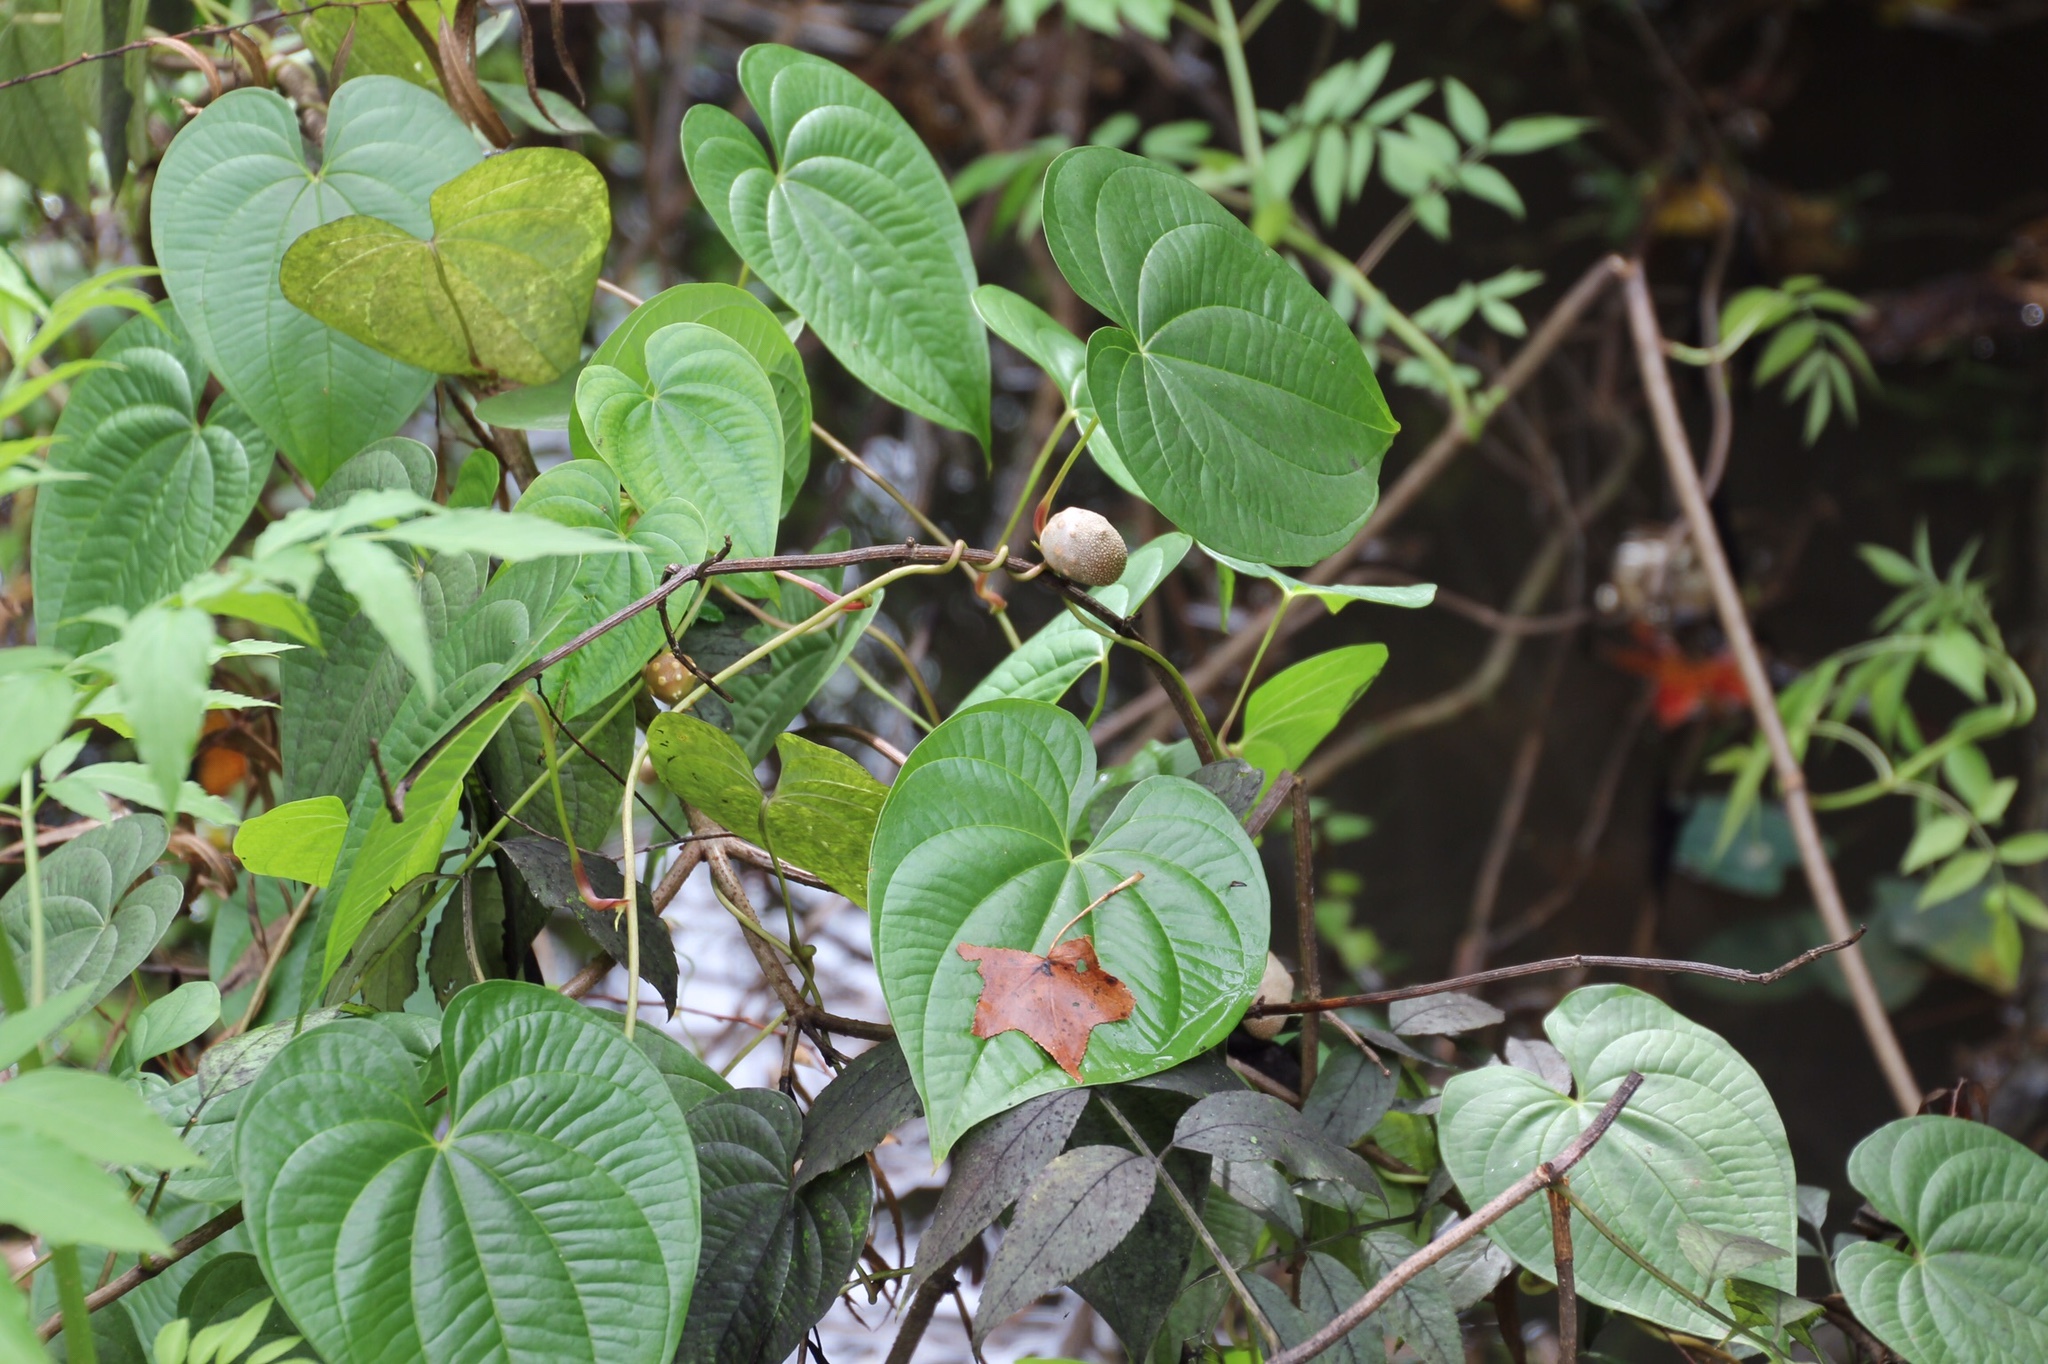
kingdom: Plantae
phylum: Tracheophyta
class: Liliopsida
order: Dioscoreales
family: Dioscoreaceae
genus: Dioscorea
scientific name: Dioscorea bulbifera
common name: Air yam
